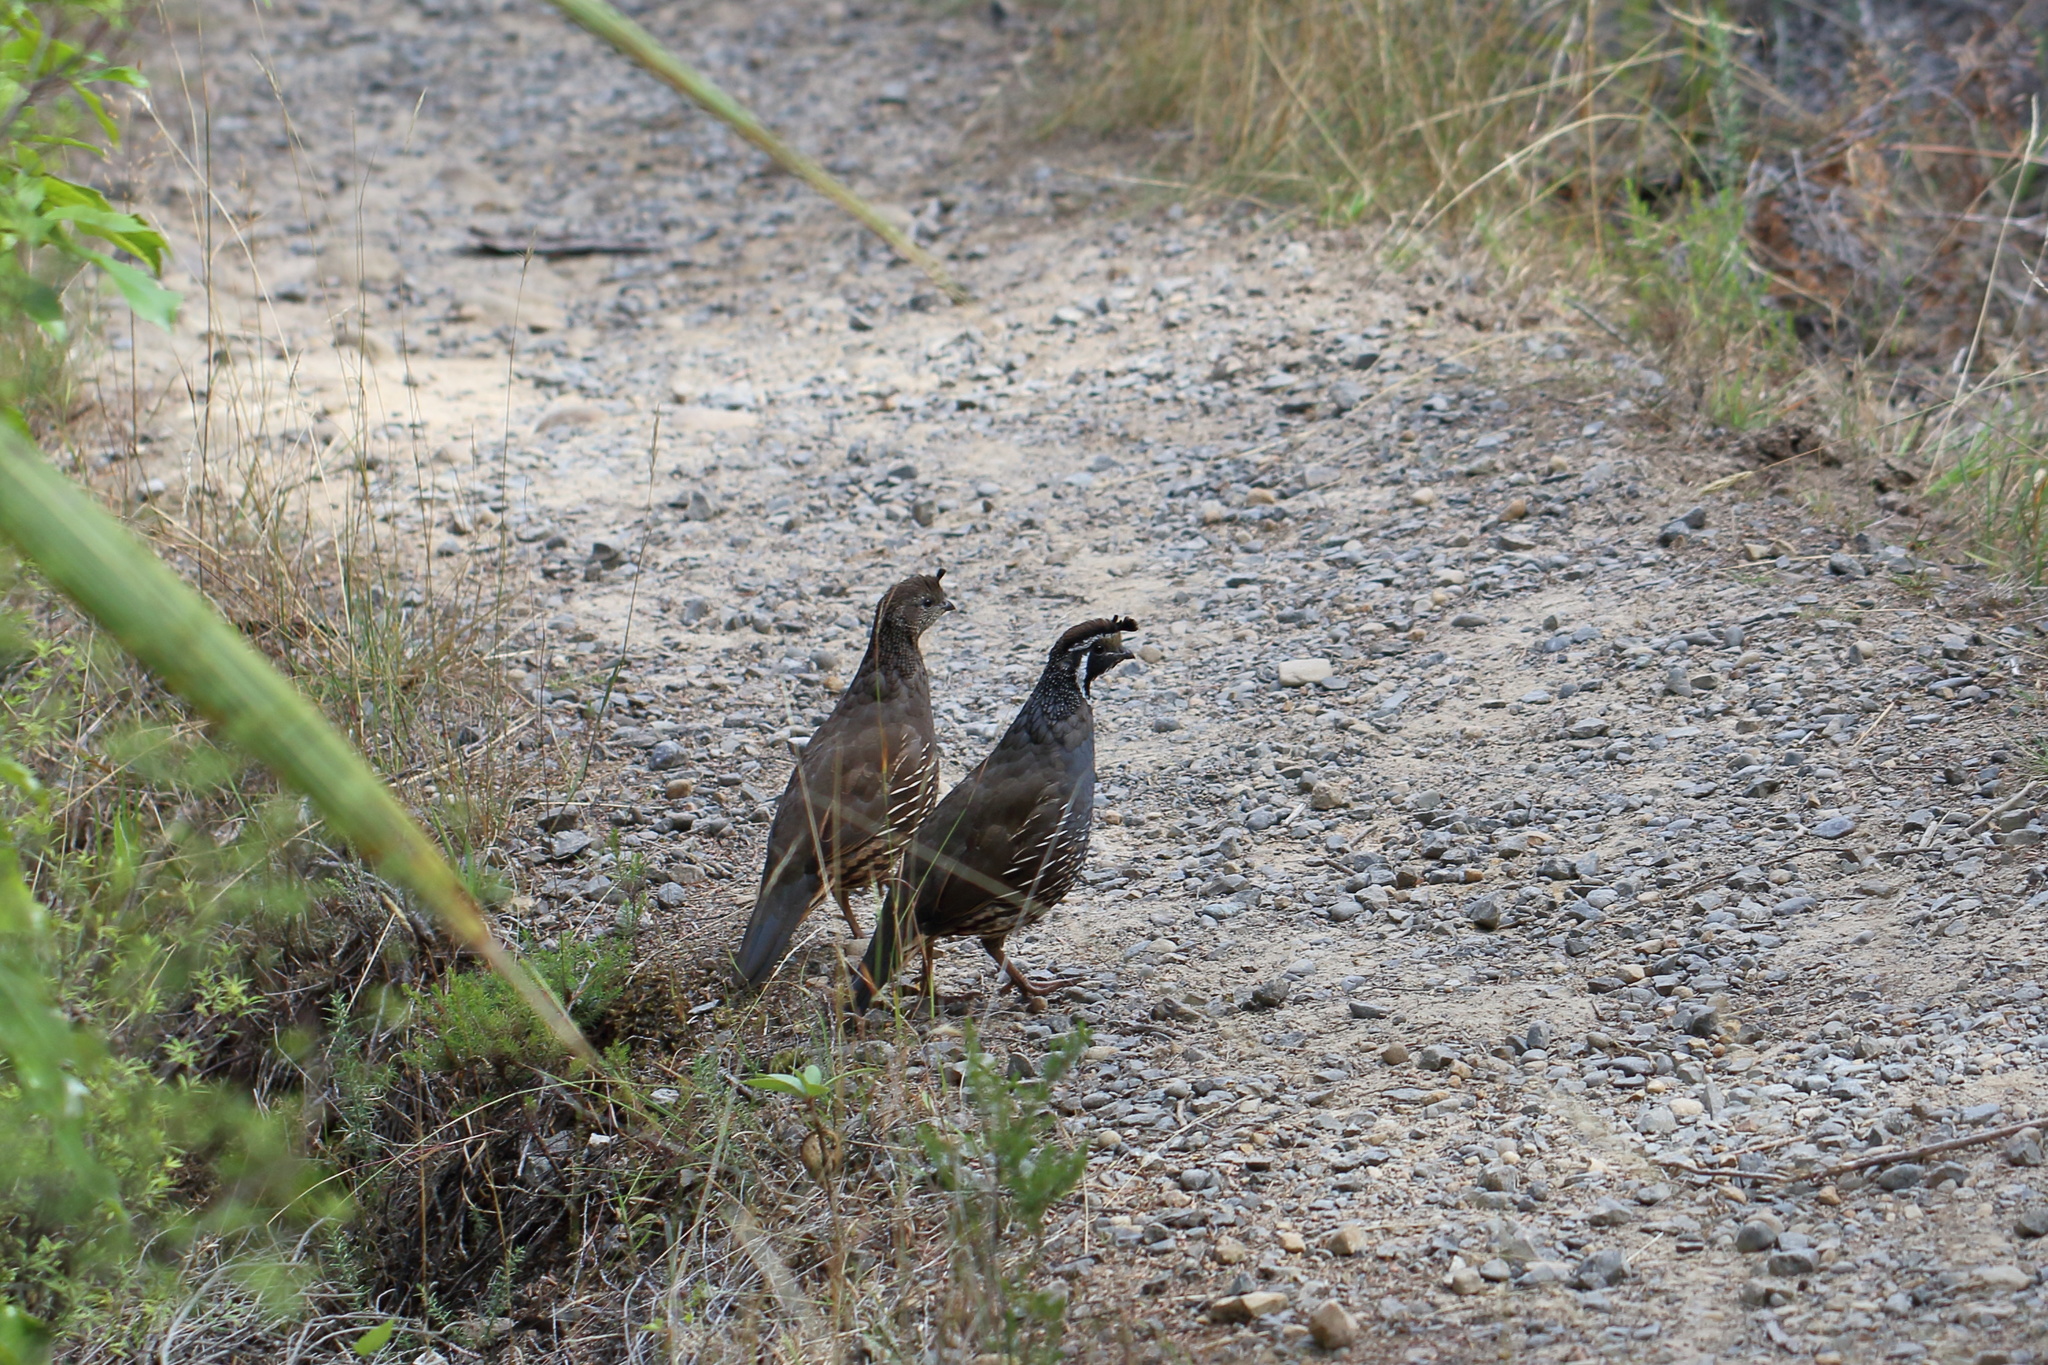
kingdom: Animalia
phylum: Chordata
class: Aves
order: Galliformes
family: Odontophoridae
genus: Callipepla
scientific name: Callipepla californica
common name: California quail
